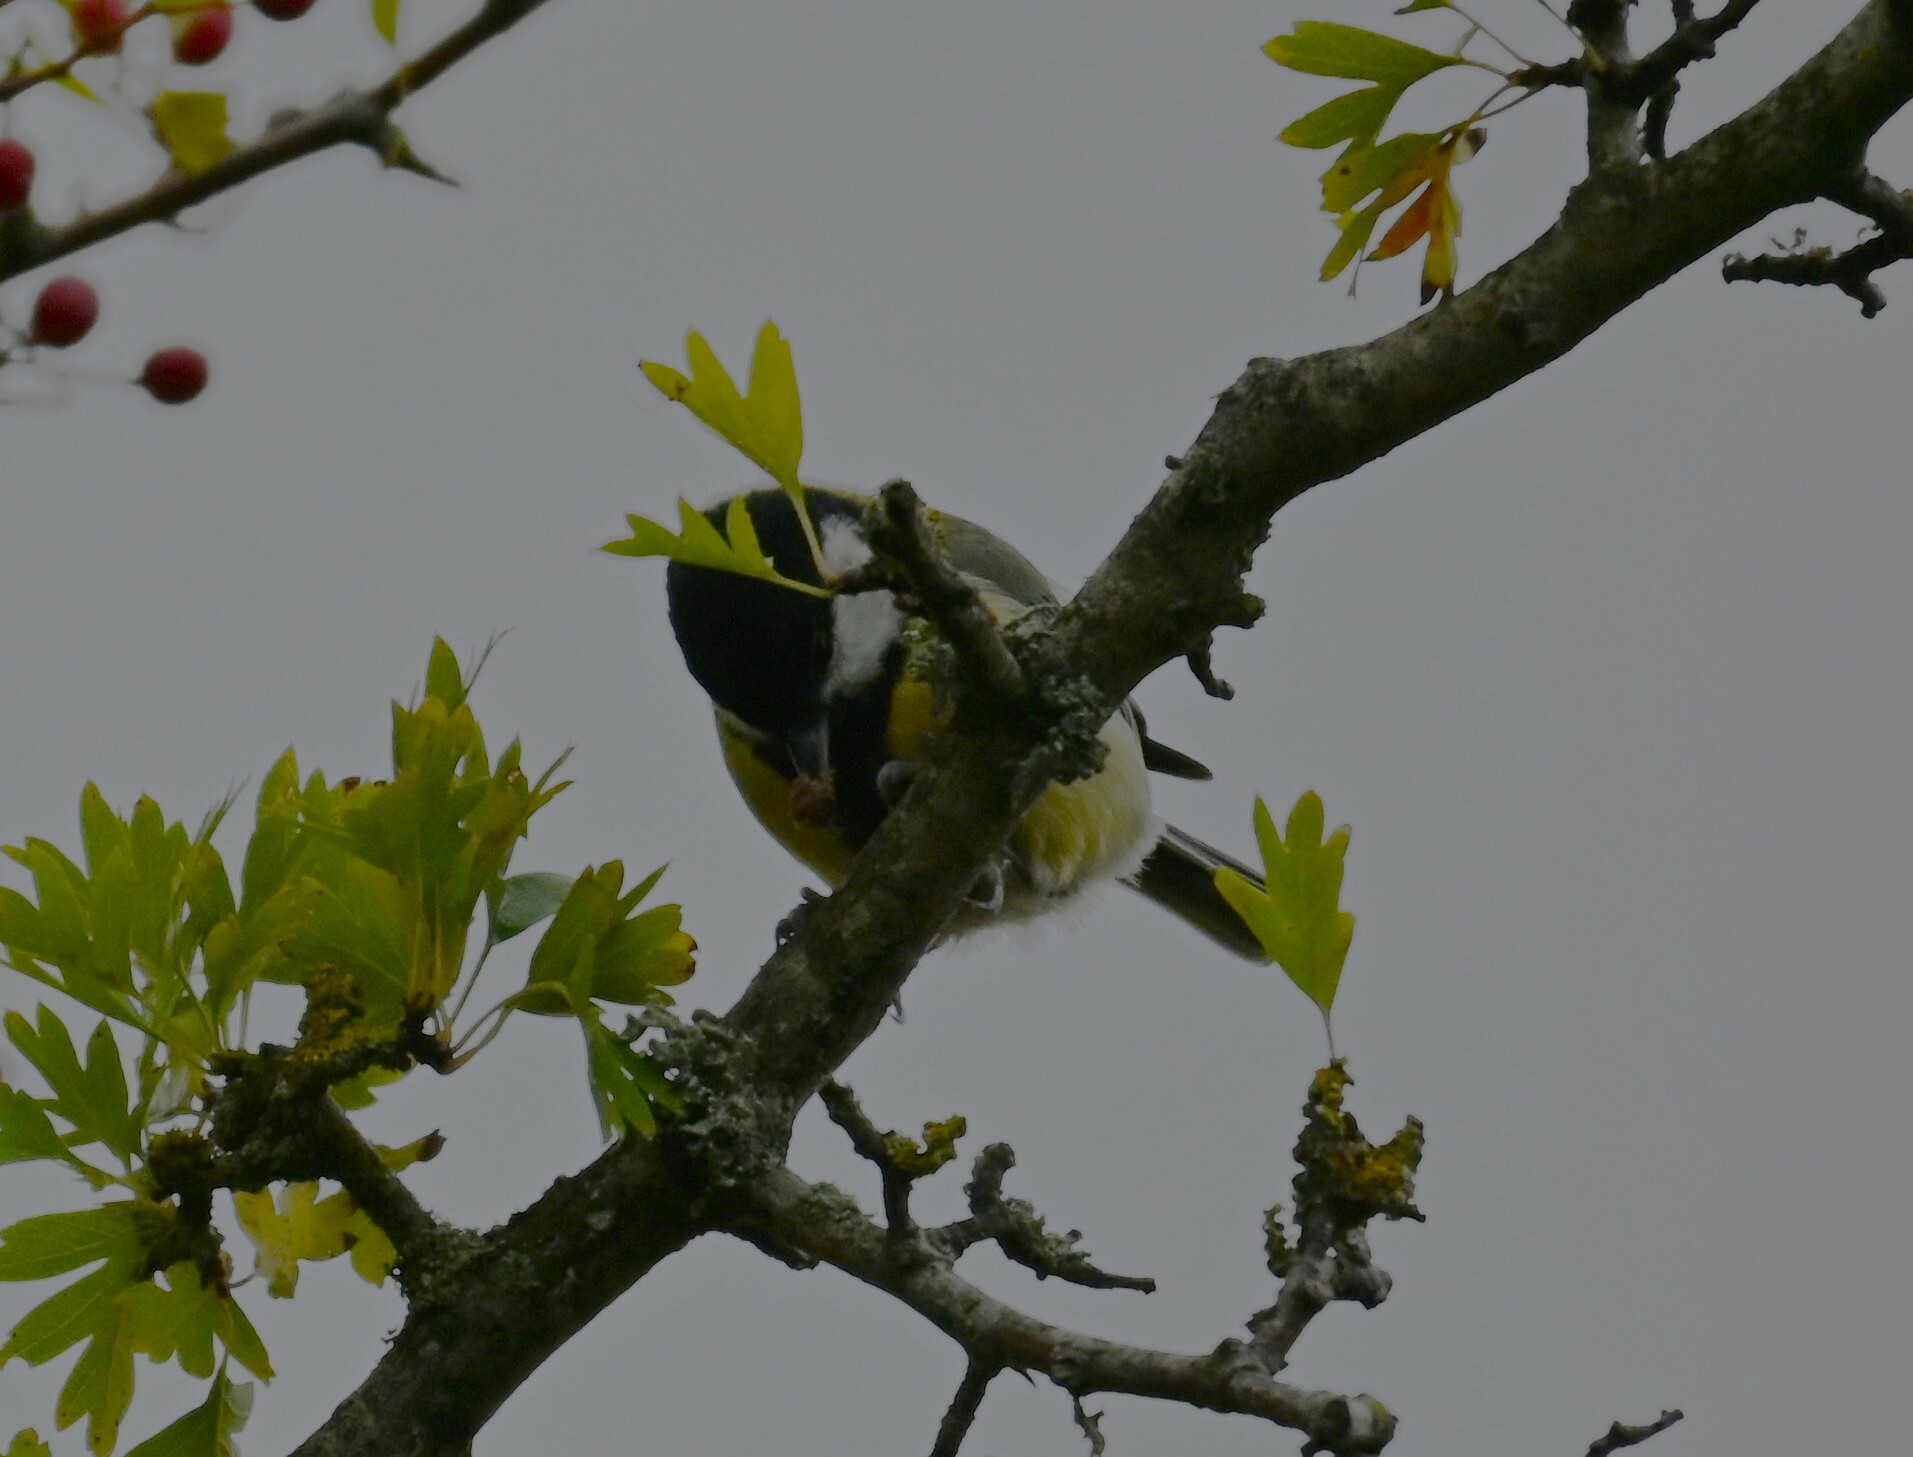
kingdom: Animalia
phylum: Chordata
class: Aves
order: Passeriformes
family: Paridae
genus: Parus
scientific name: Parus major
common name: Great tit
